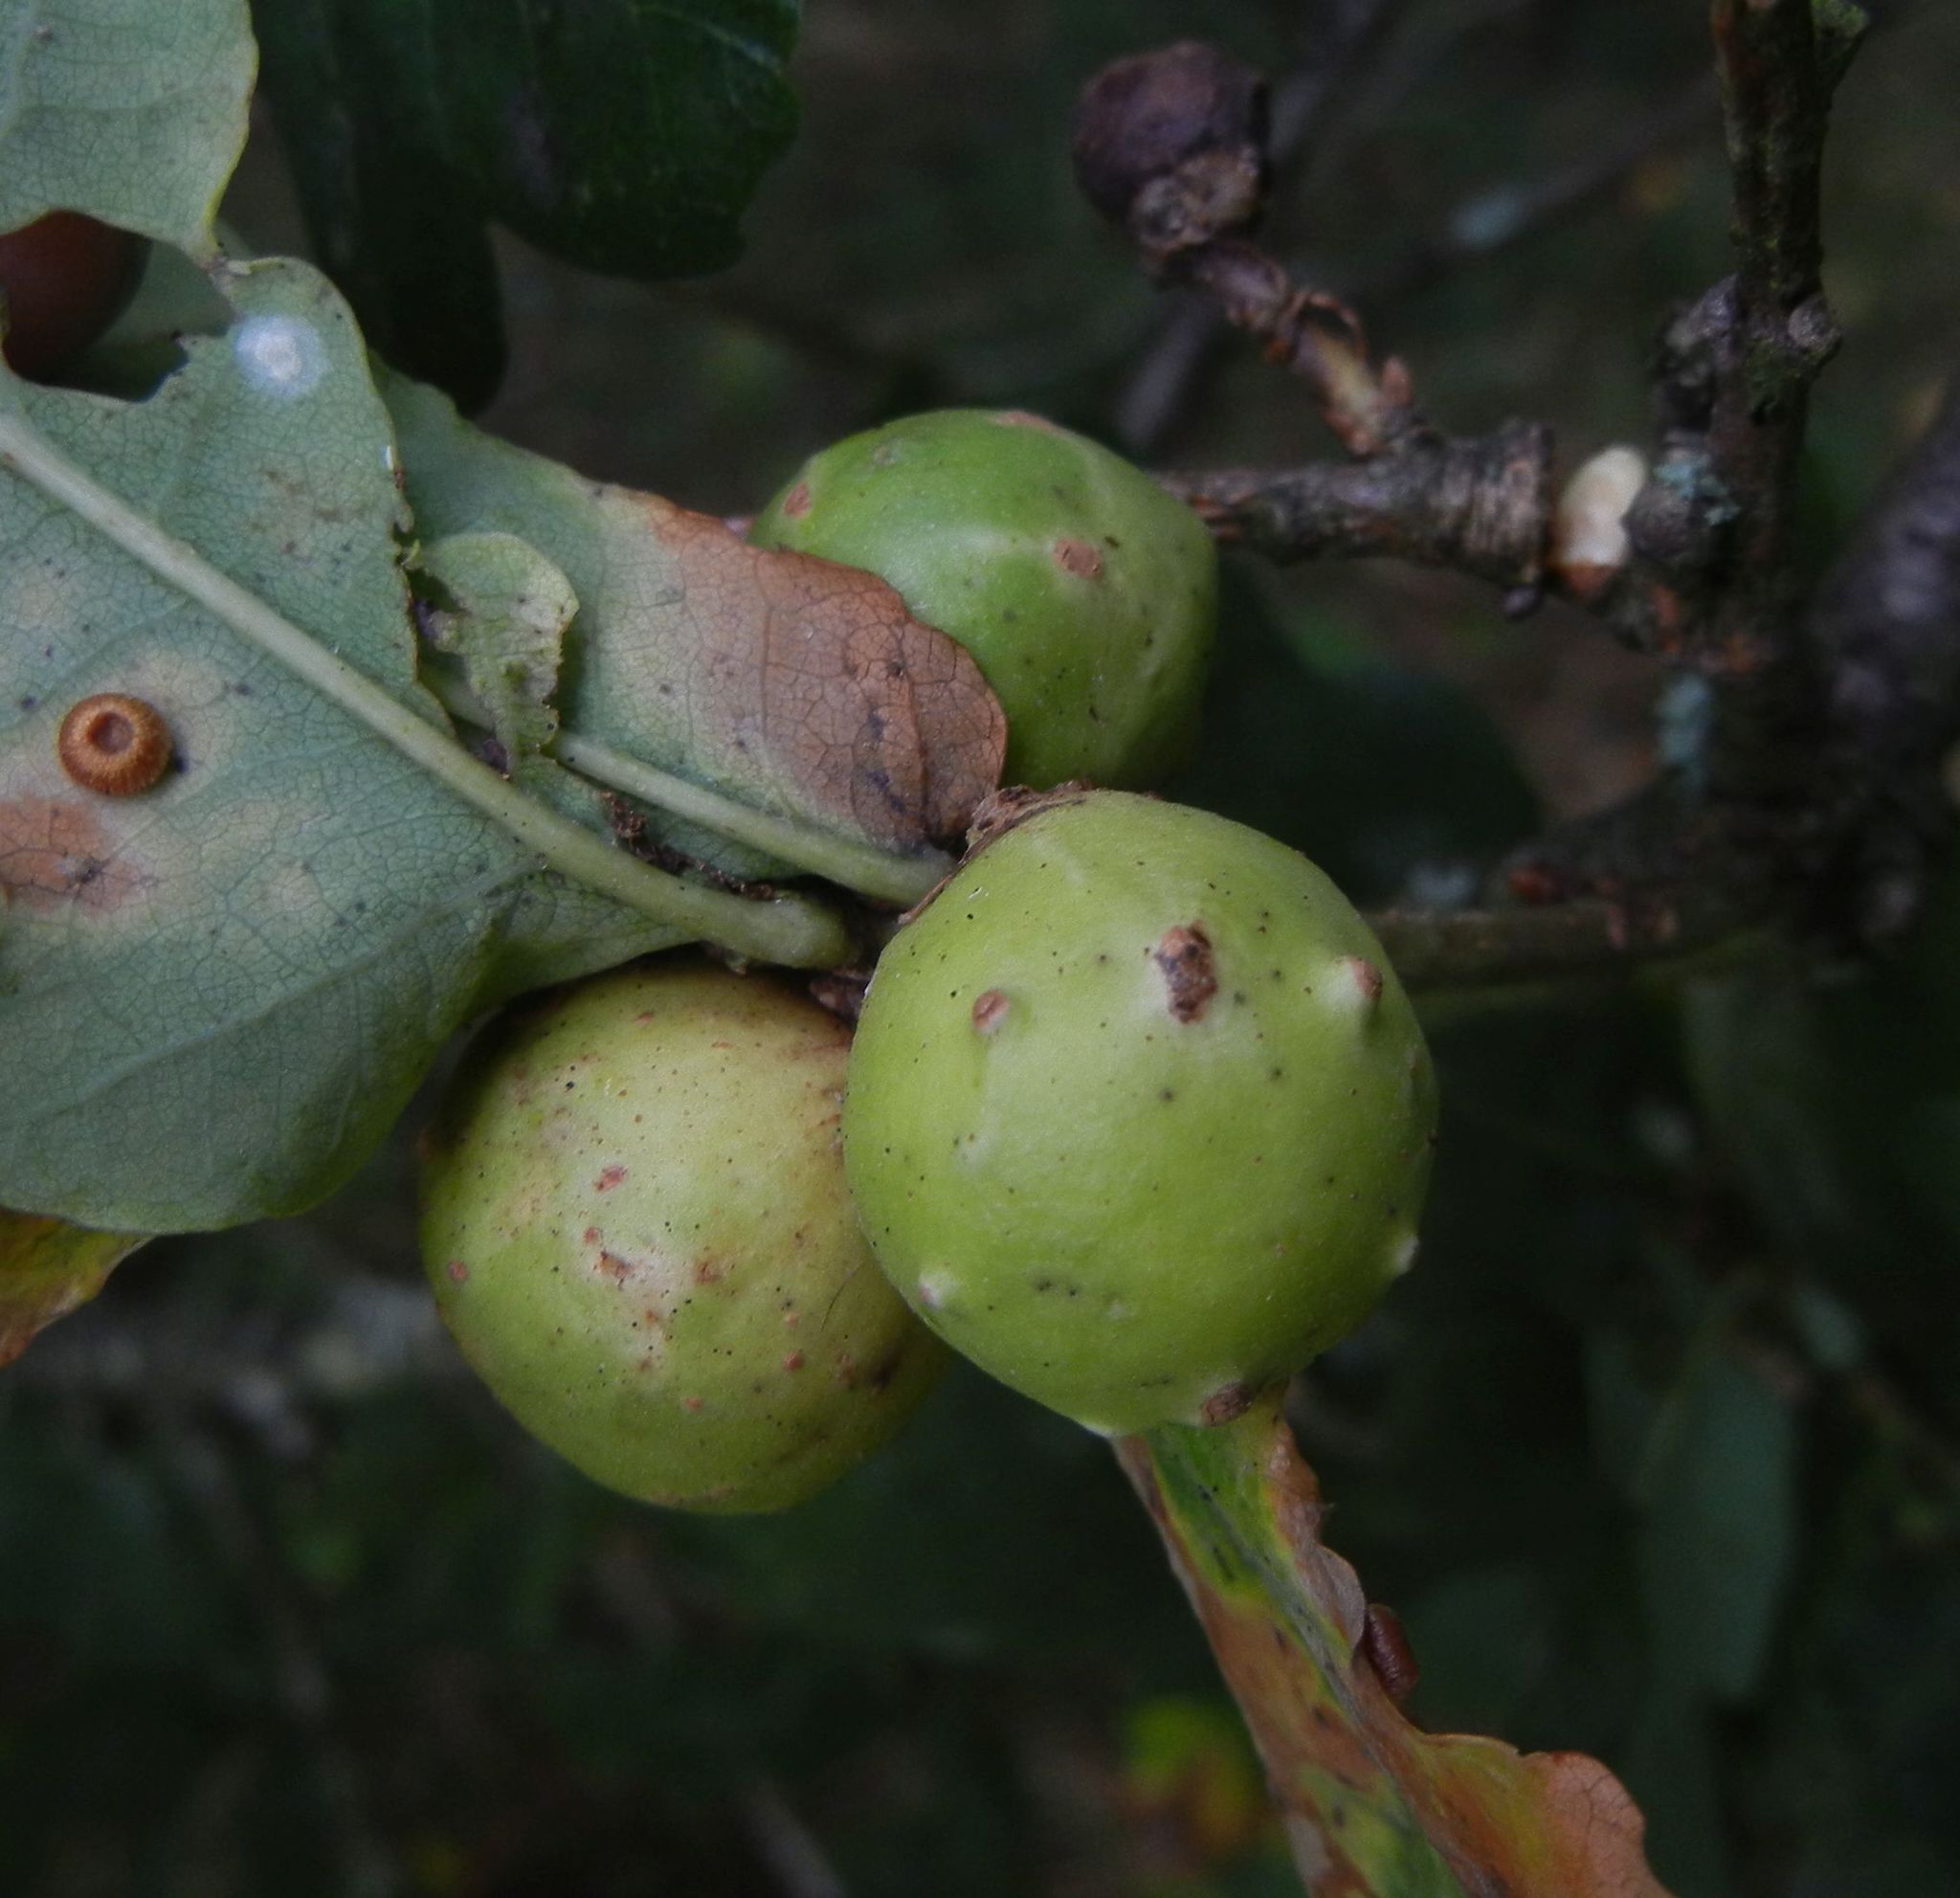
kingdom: Animalia
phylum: Arthropoda
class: Insecta
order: Hymenoptera
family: Cynipidae
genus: Andricus
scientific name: Andricus kollari
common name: Marble gall
